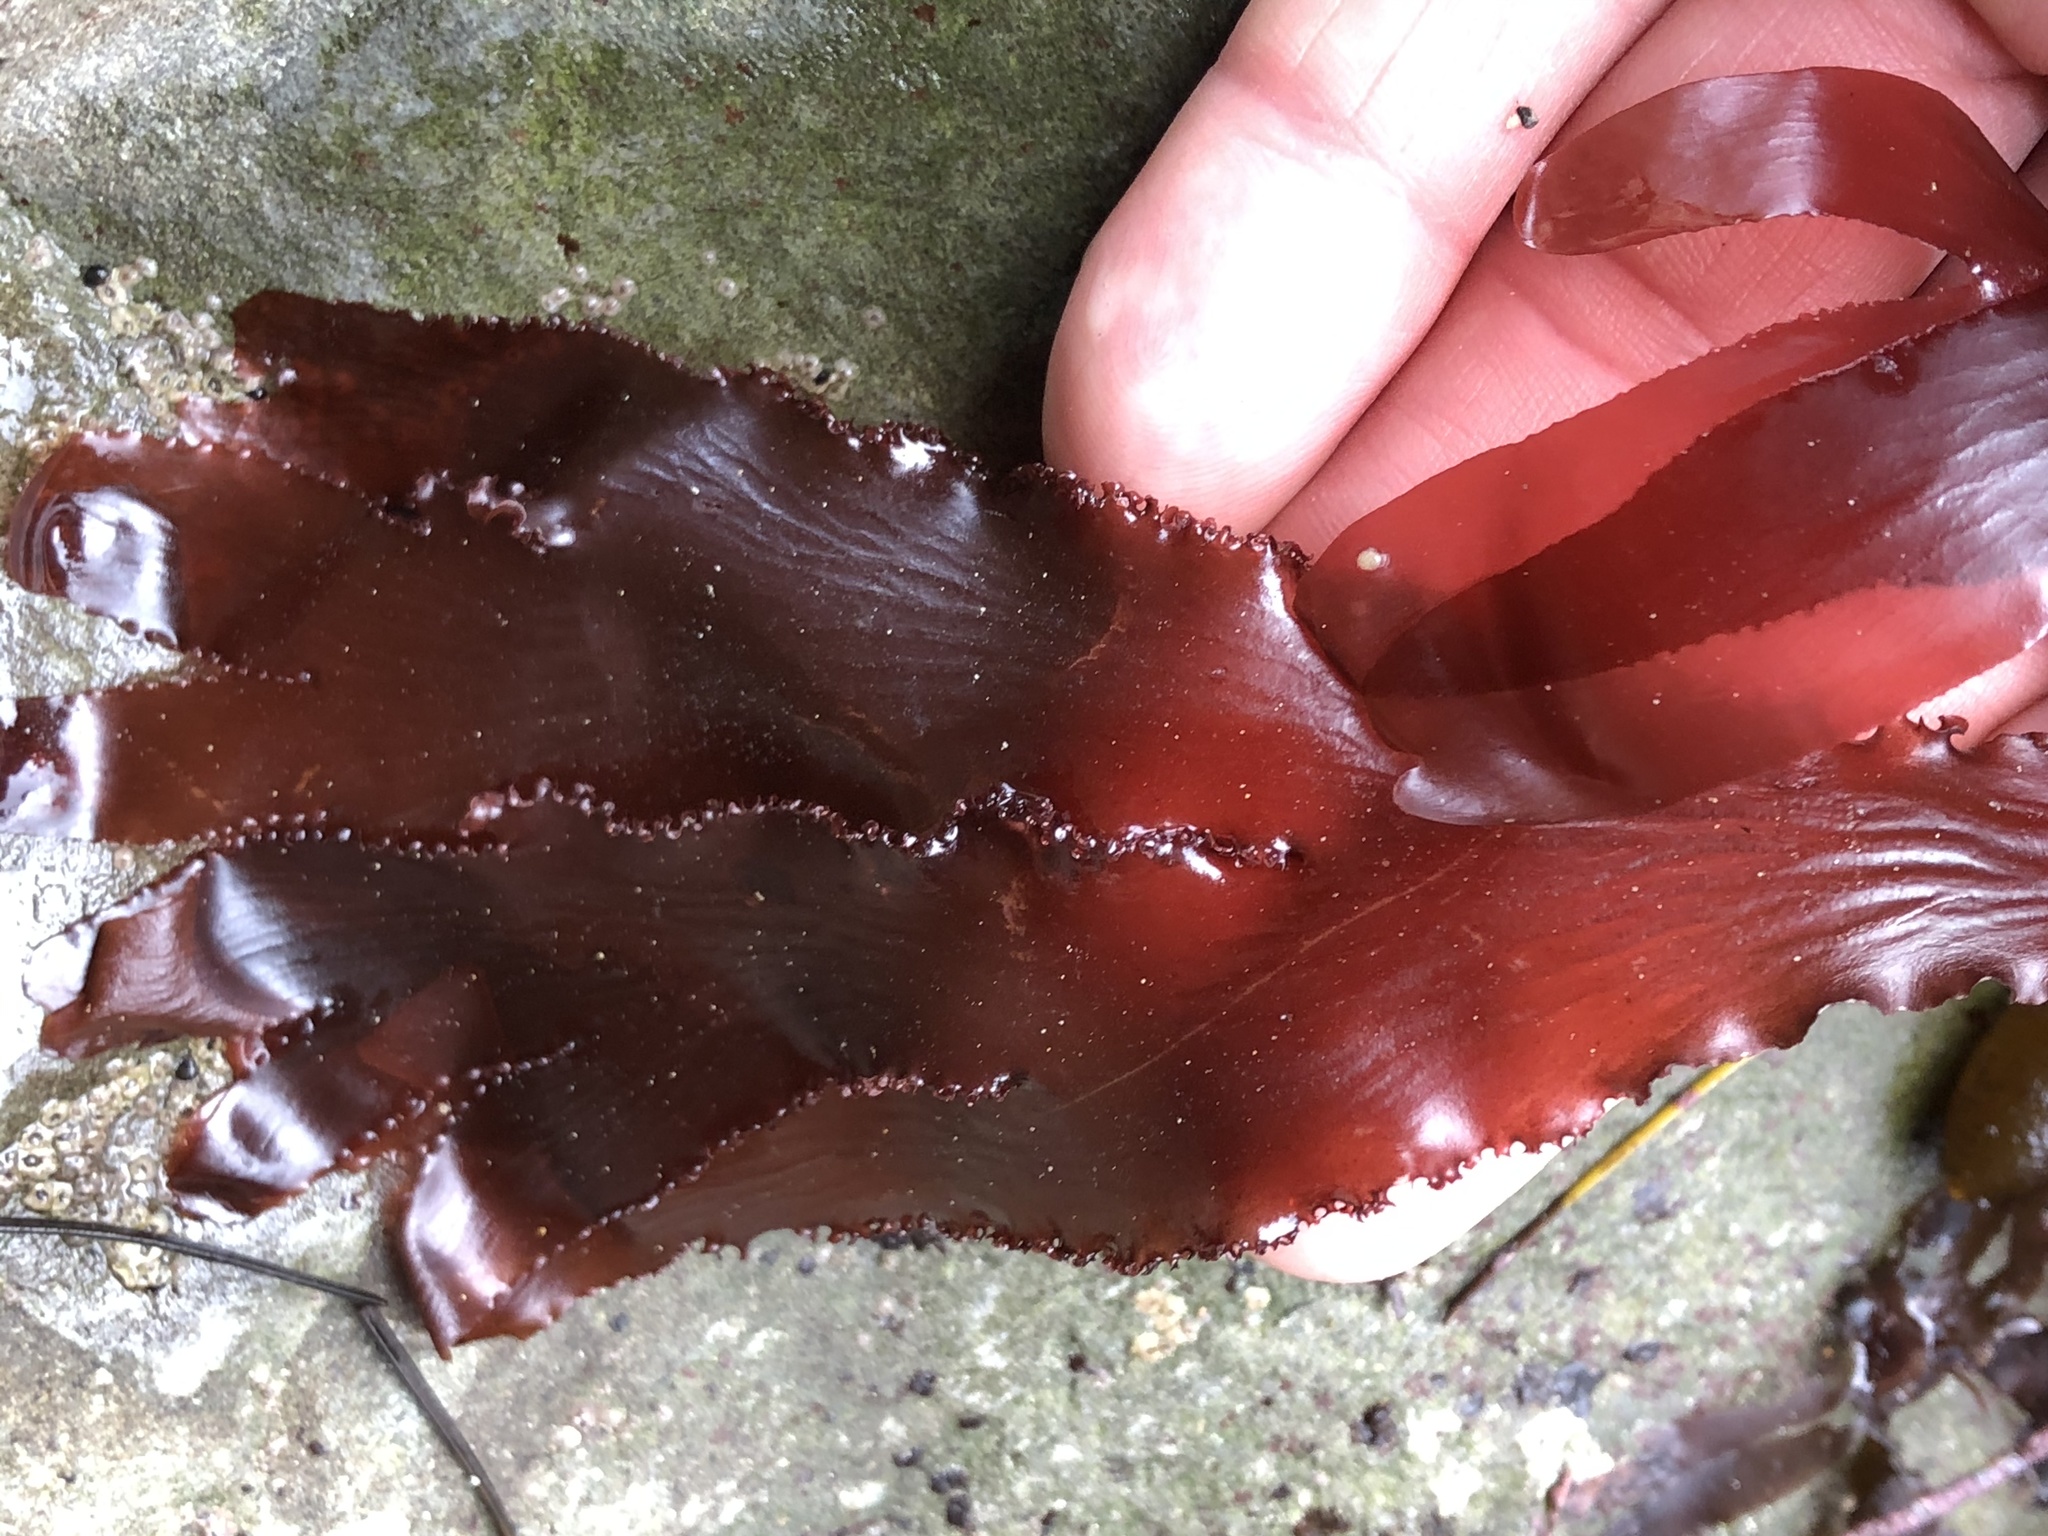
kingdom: Plantae
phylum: Rhodophyta
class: Florideophyceae
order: Ceramiales
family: Delesseriaceae
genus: Cryptopleura
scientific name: Cryptopleura ruprechtiana
